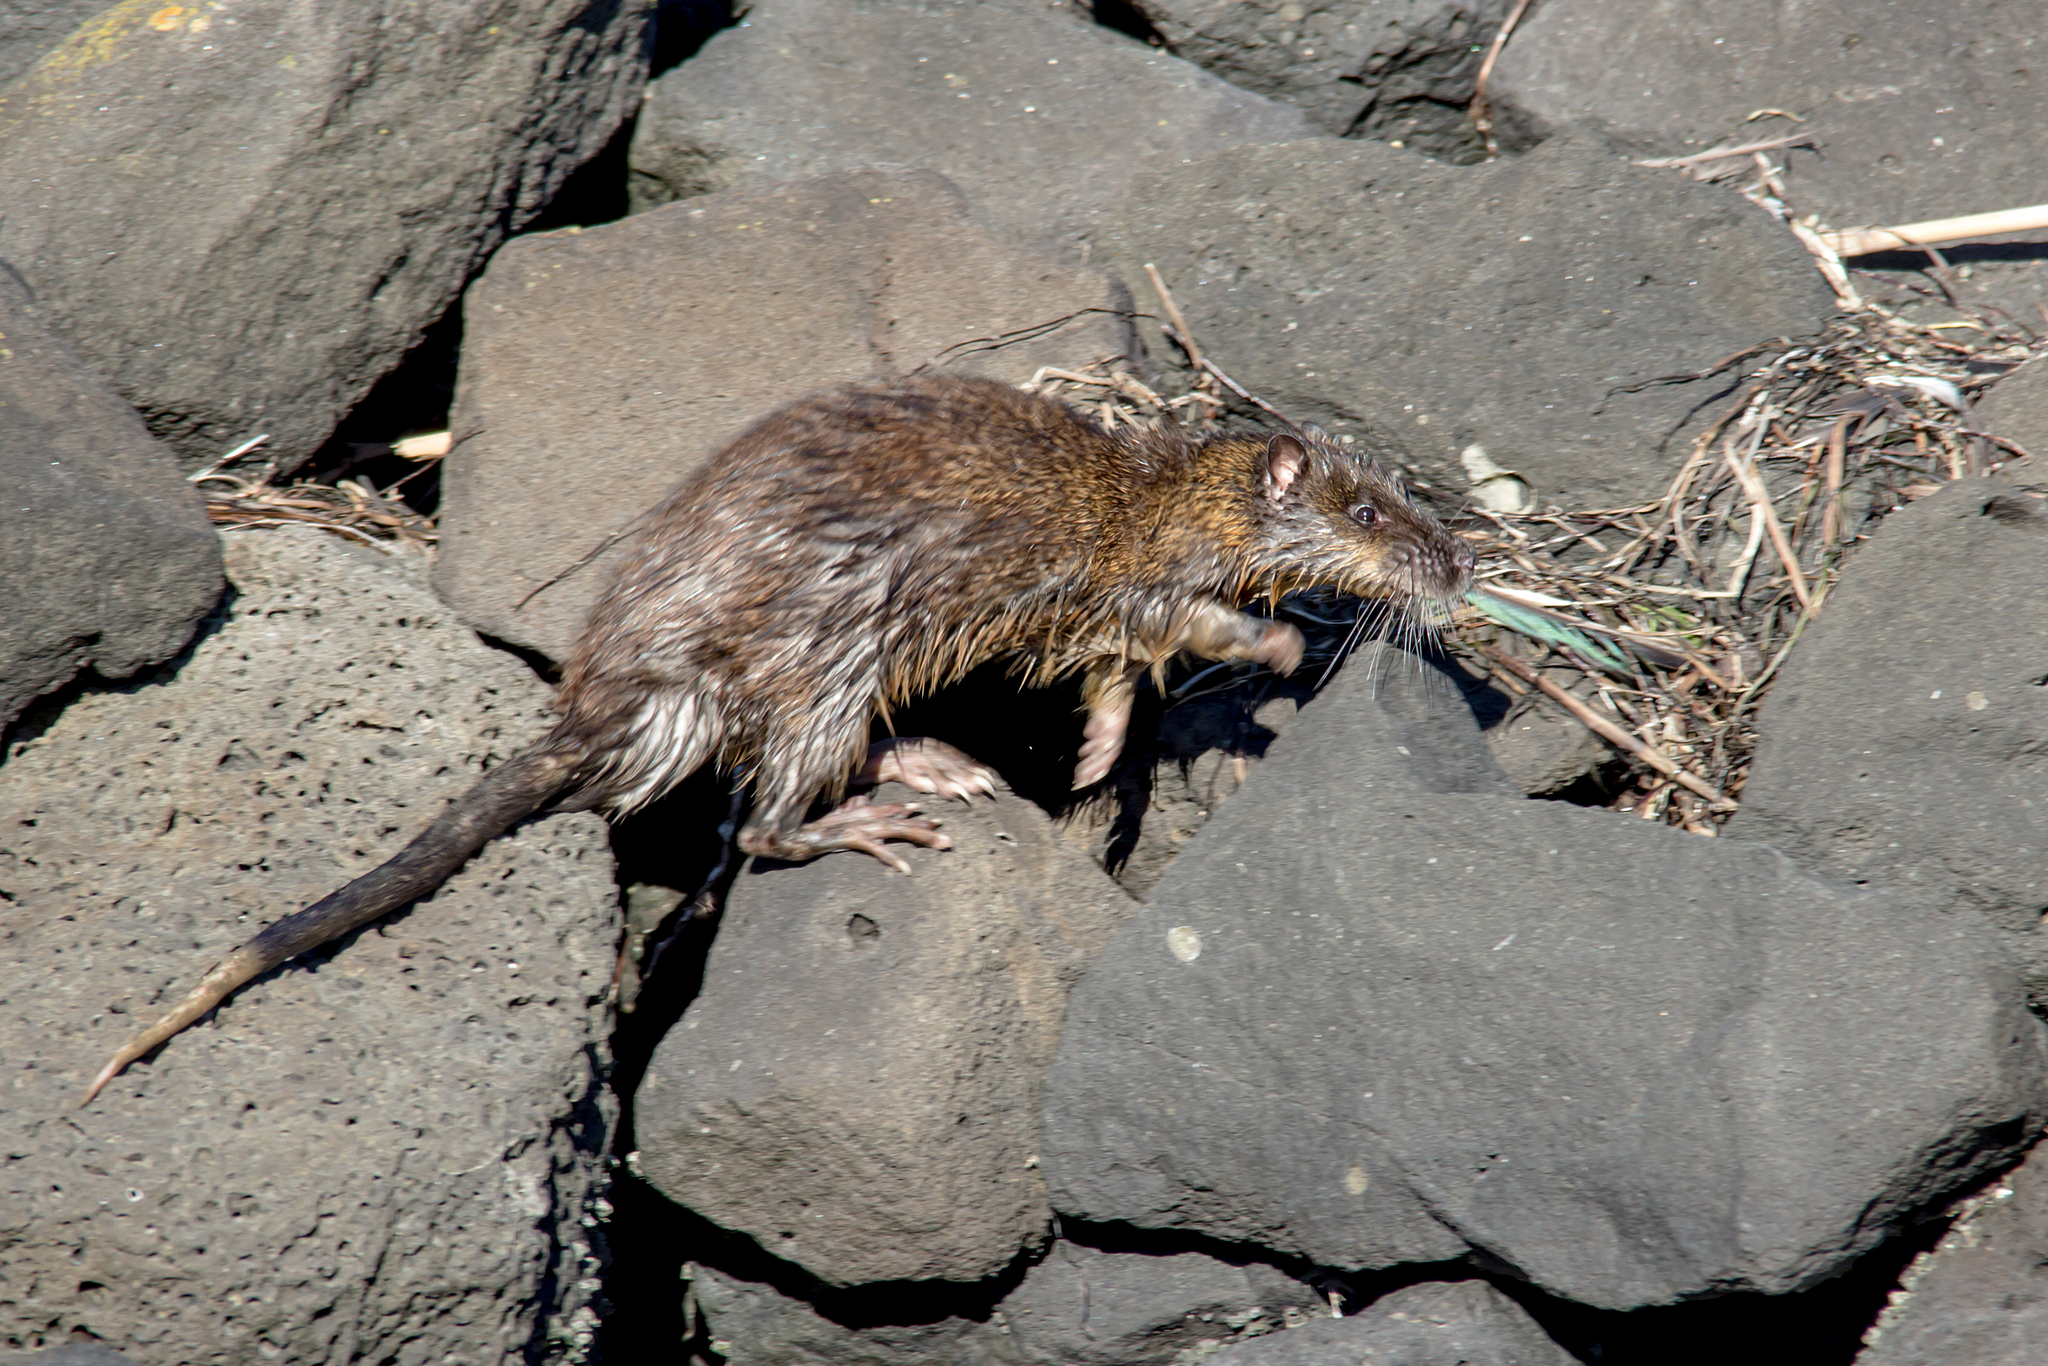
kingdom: Animalia
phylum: Chordata
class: Mammalia
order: Rodentia
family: Muridae
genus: Hydromys
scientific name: Hydromys chrysogaster
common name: Common water rat
